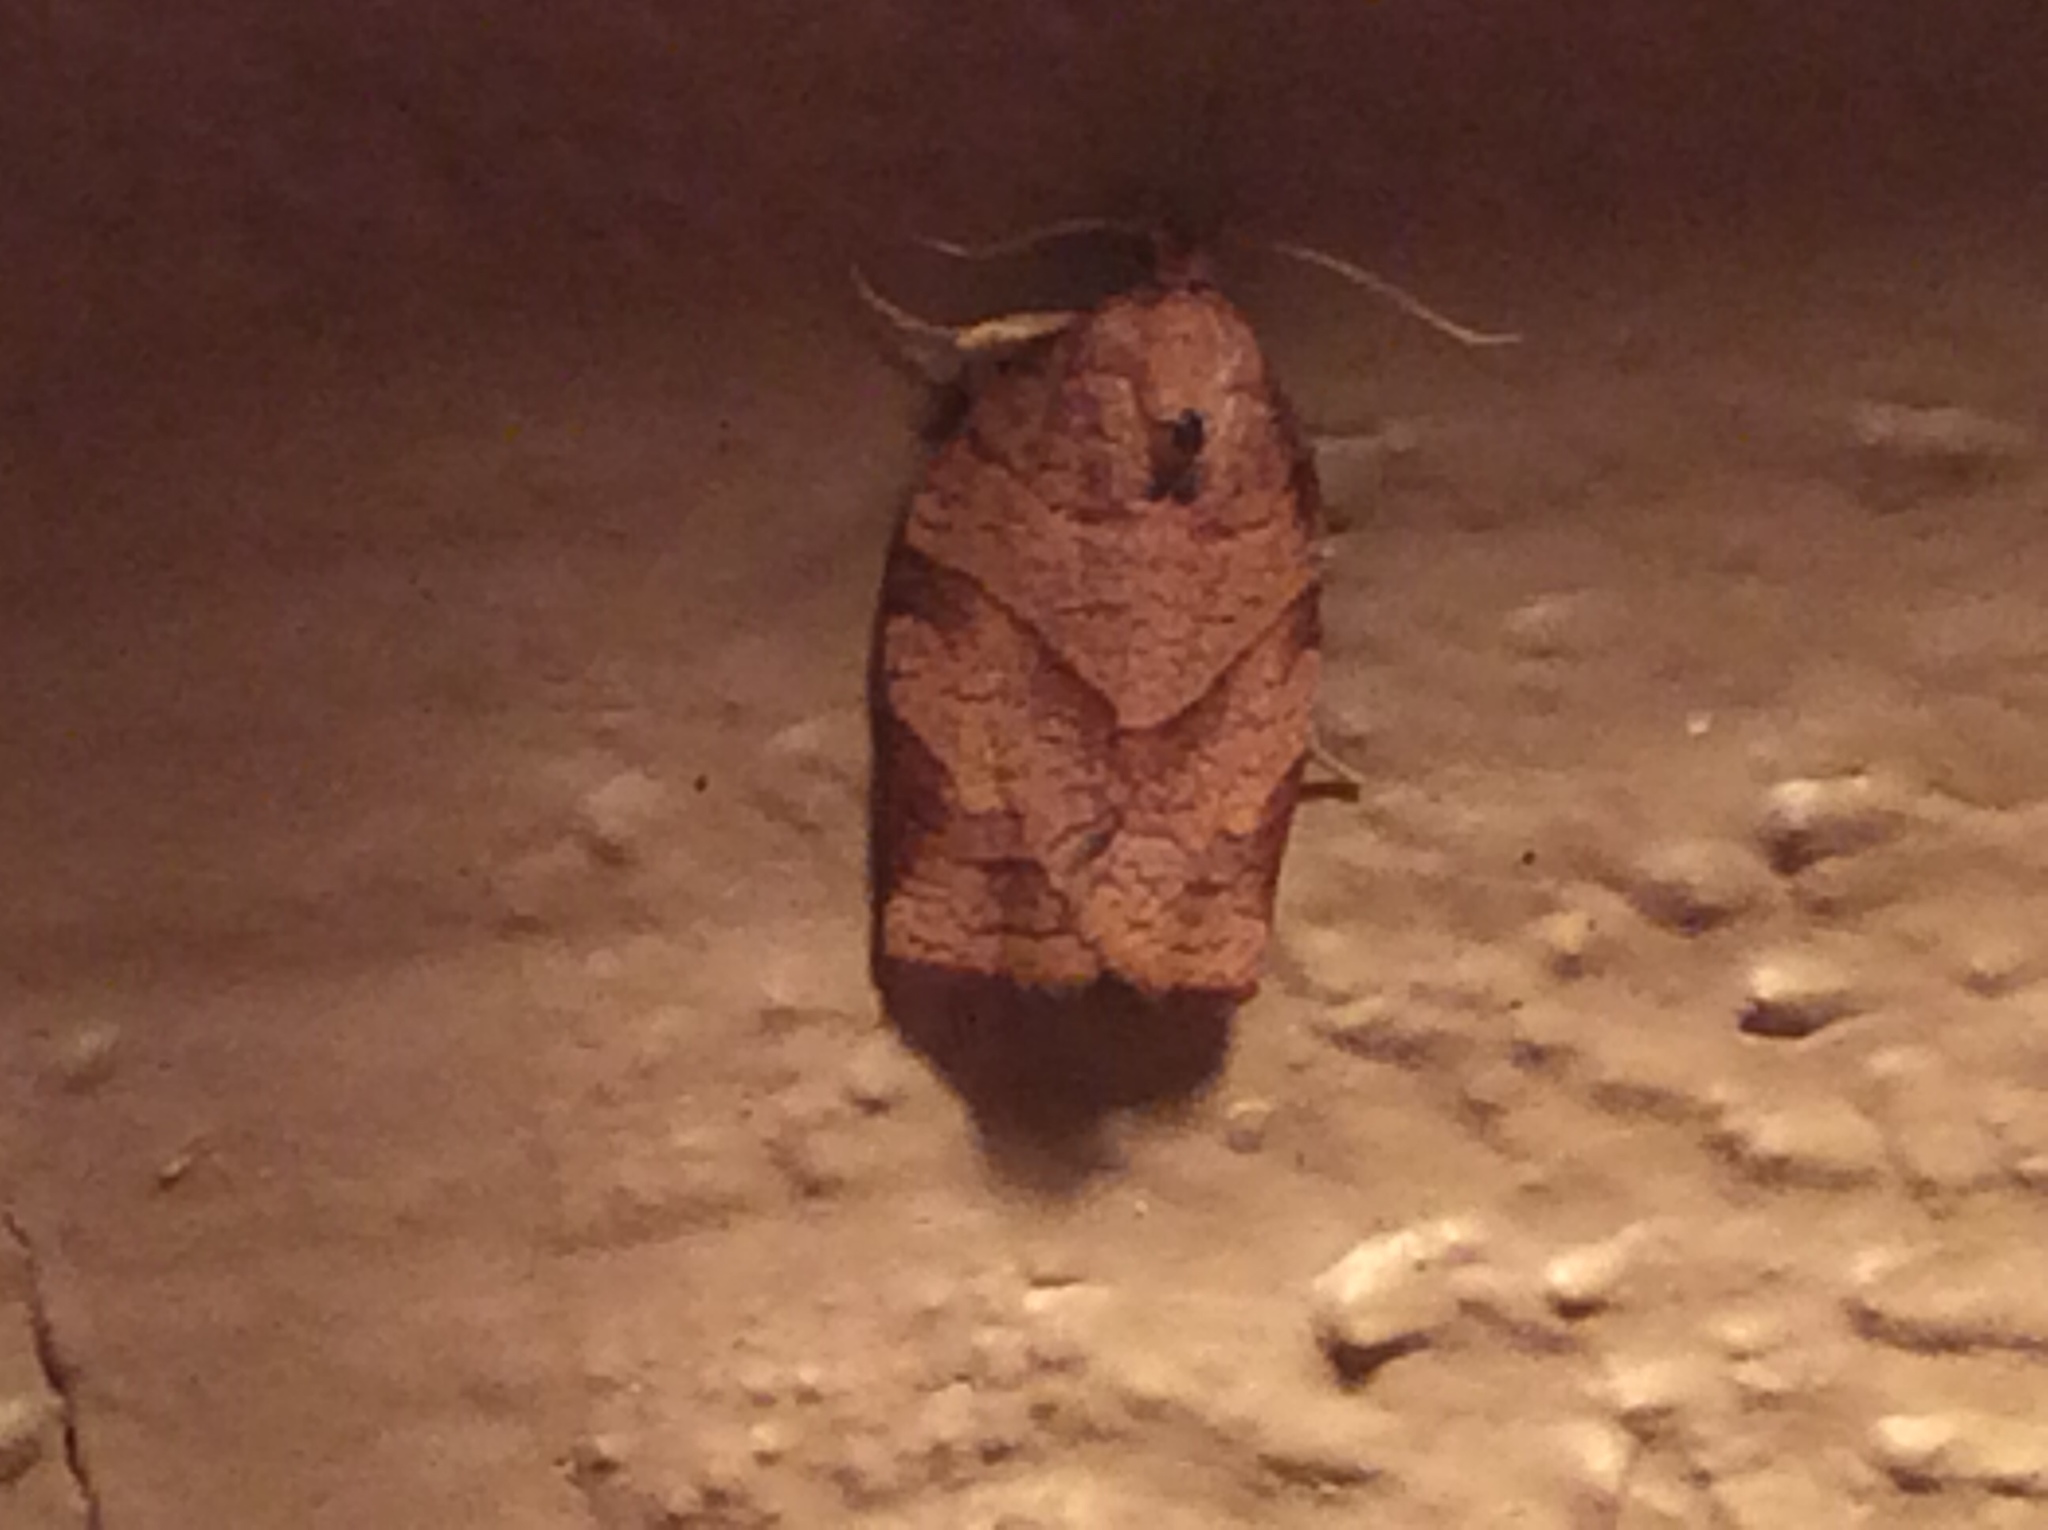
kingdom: Animalia
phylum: Arthropoda
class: Insecta
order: Lepidoptera
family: Tortricidae
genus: Choristoneura
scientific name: Choristoneura rosaceana
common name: Oblique-banded leafroller moth
